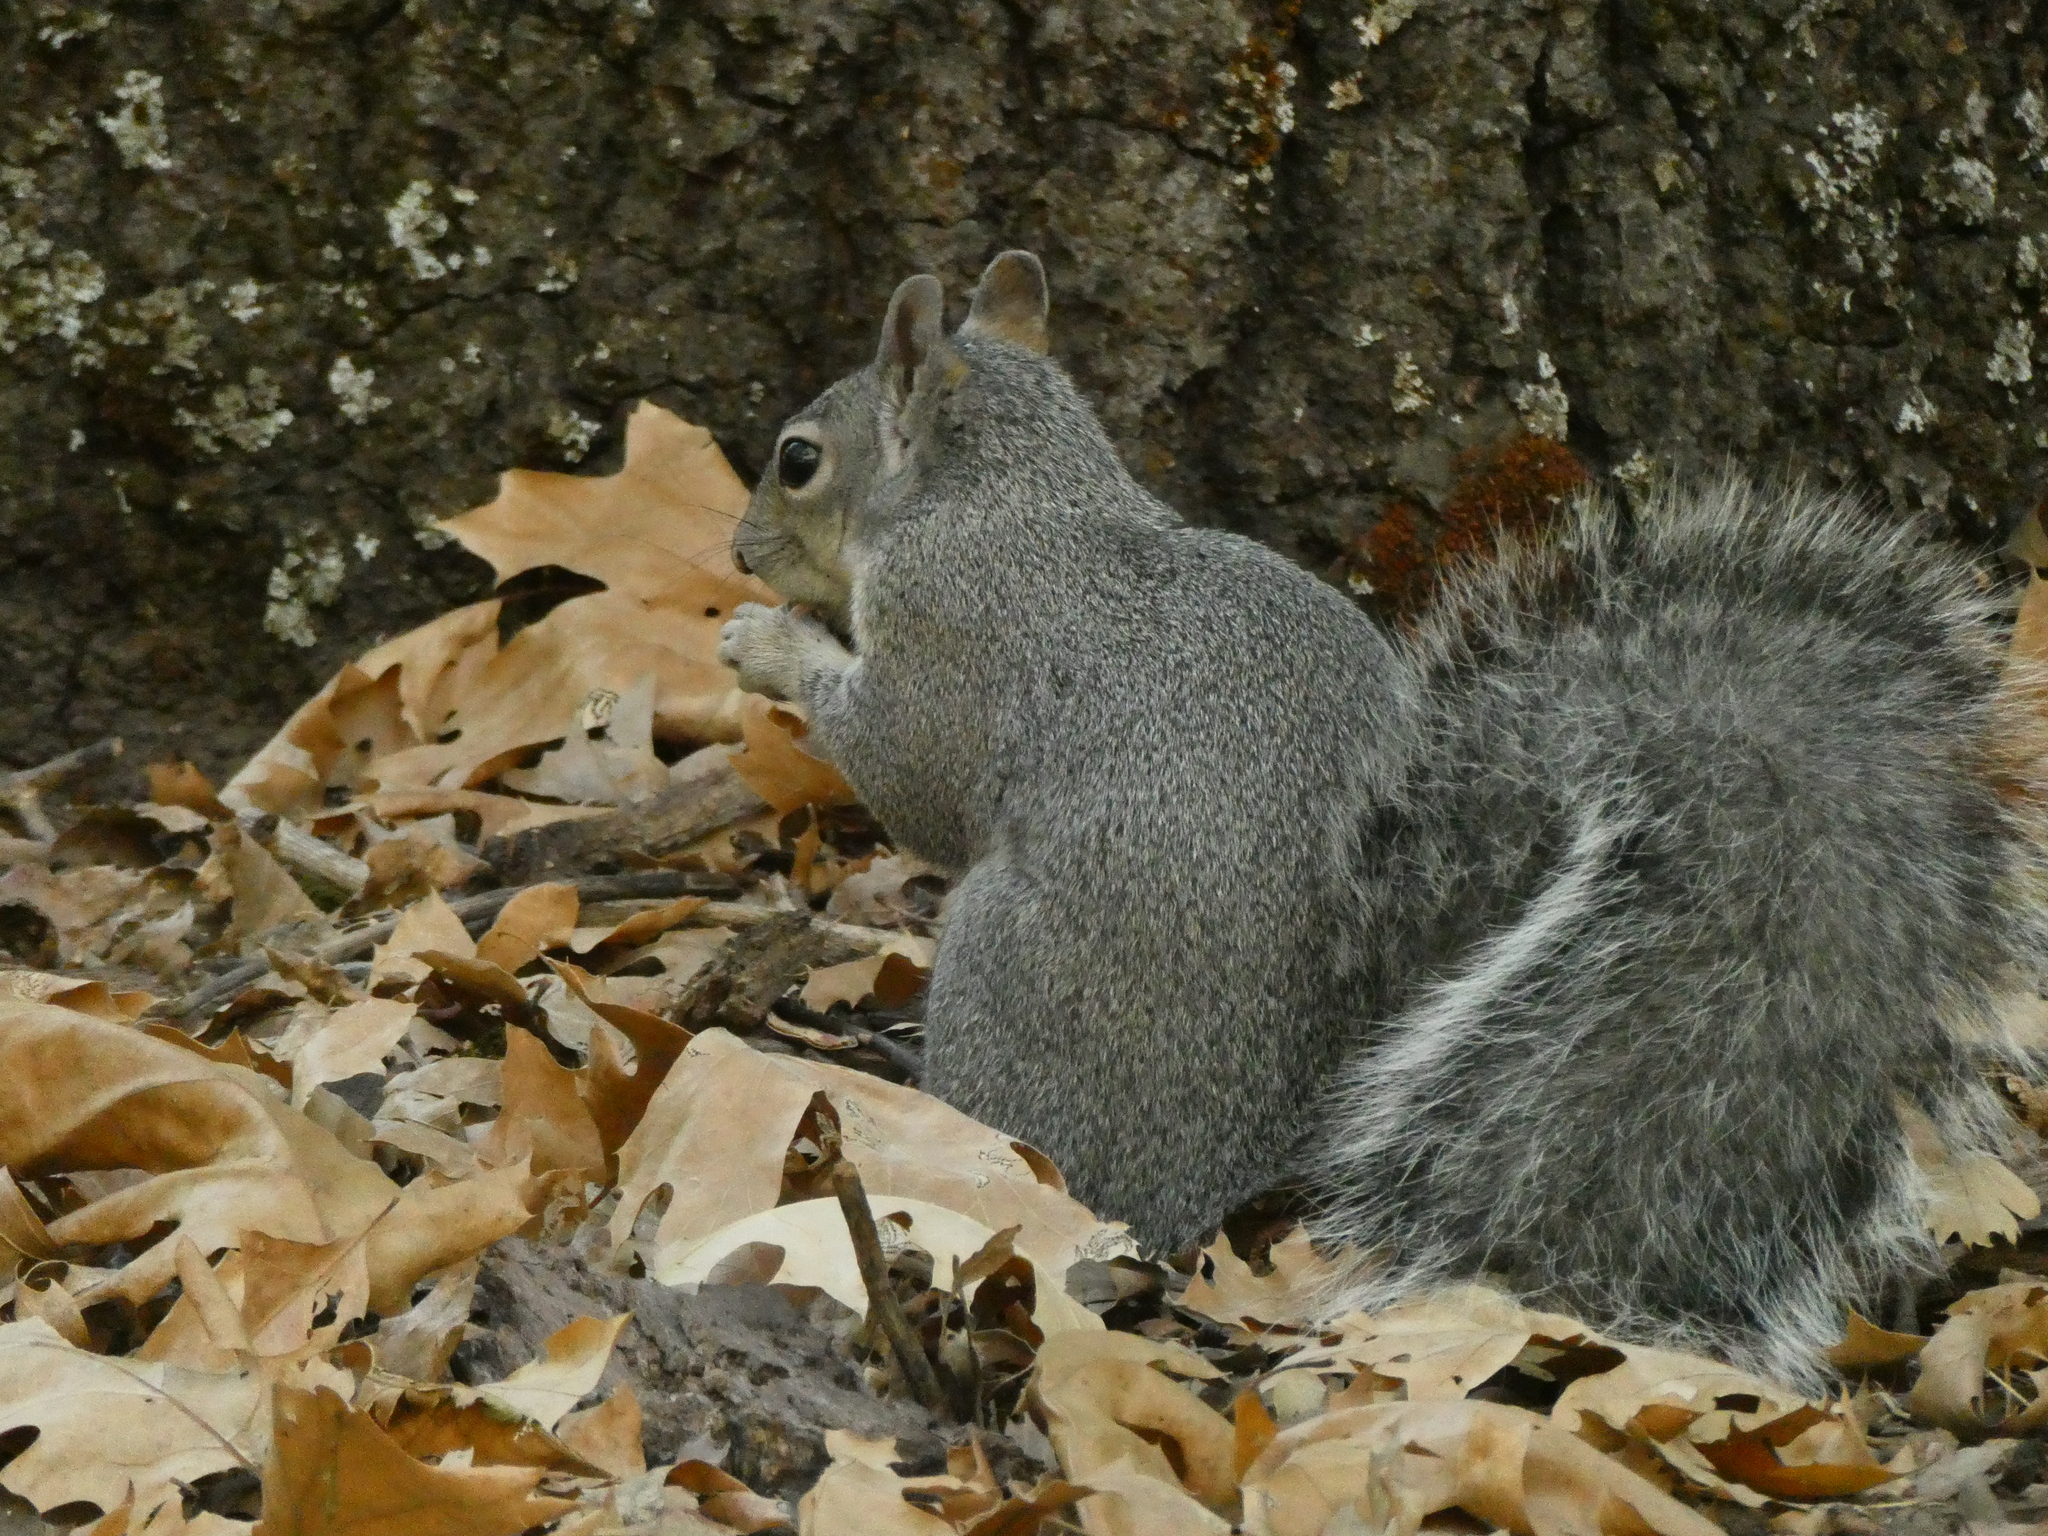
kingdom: Animalia
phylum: Chordata
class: Mammalia
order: Rodentia
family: Sciuridae
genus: Sciurus
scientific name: Sciurus griseus
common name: Western gray squirrel
